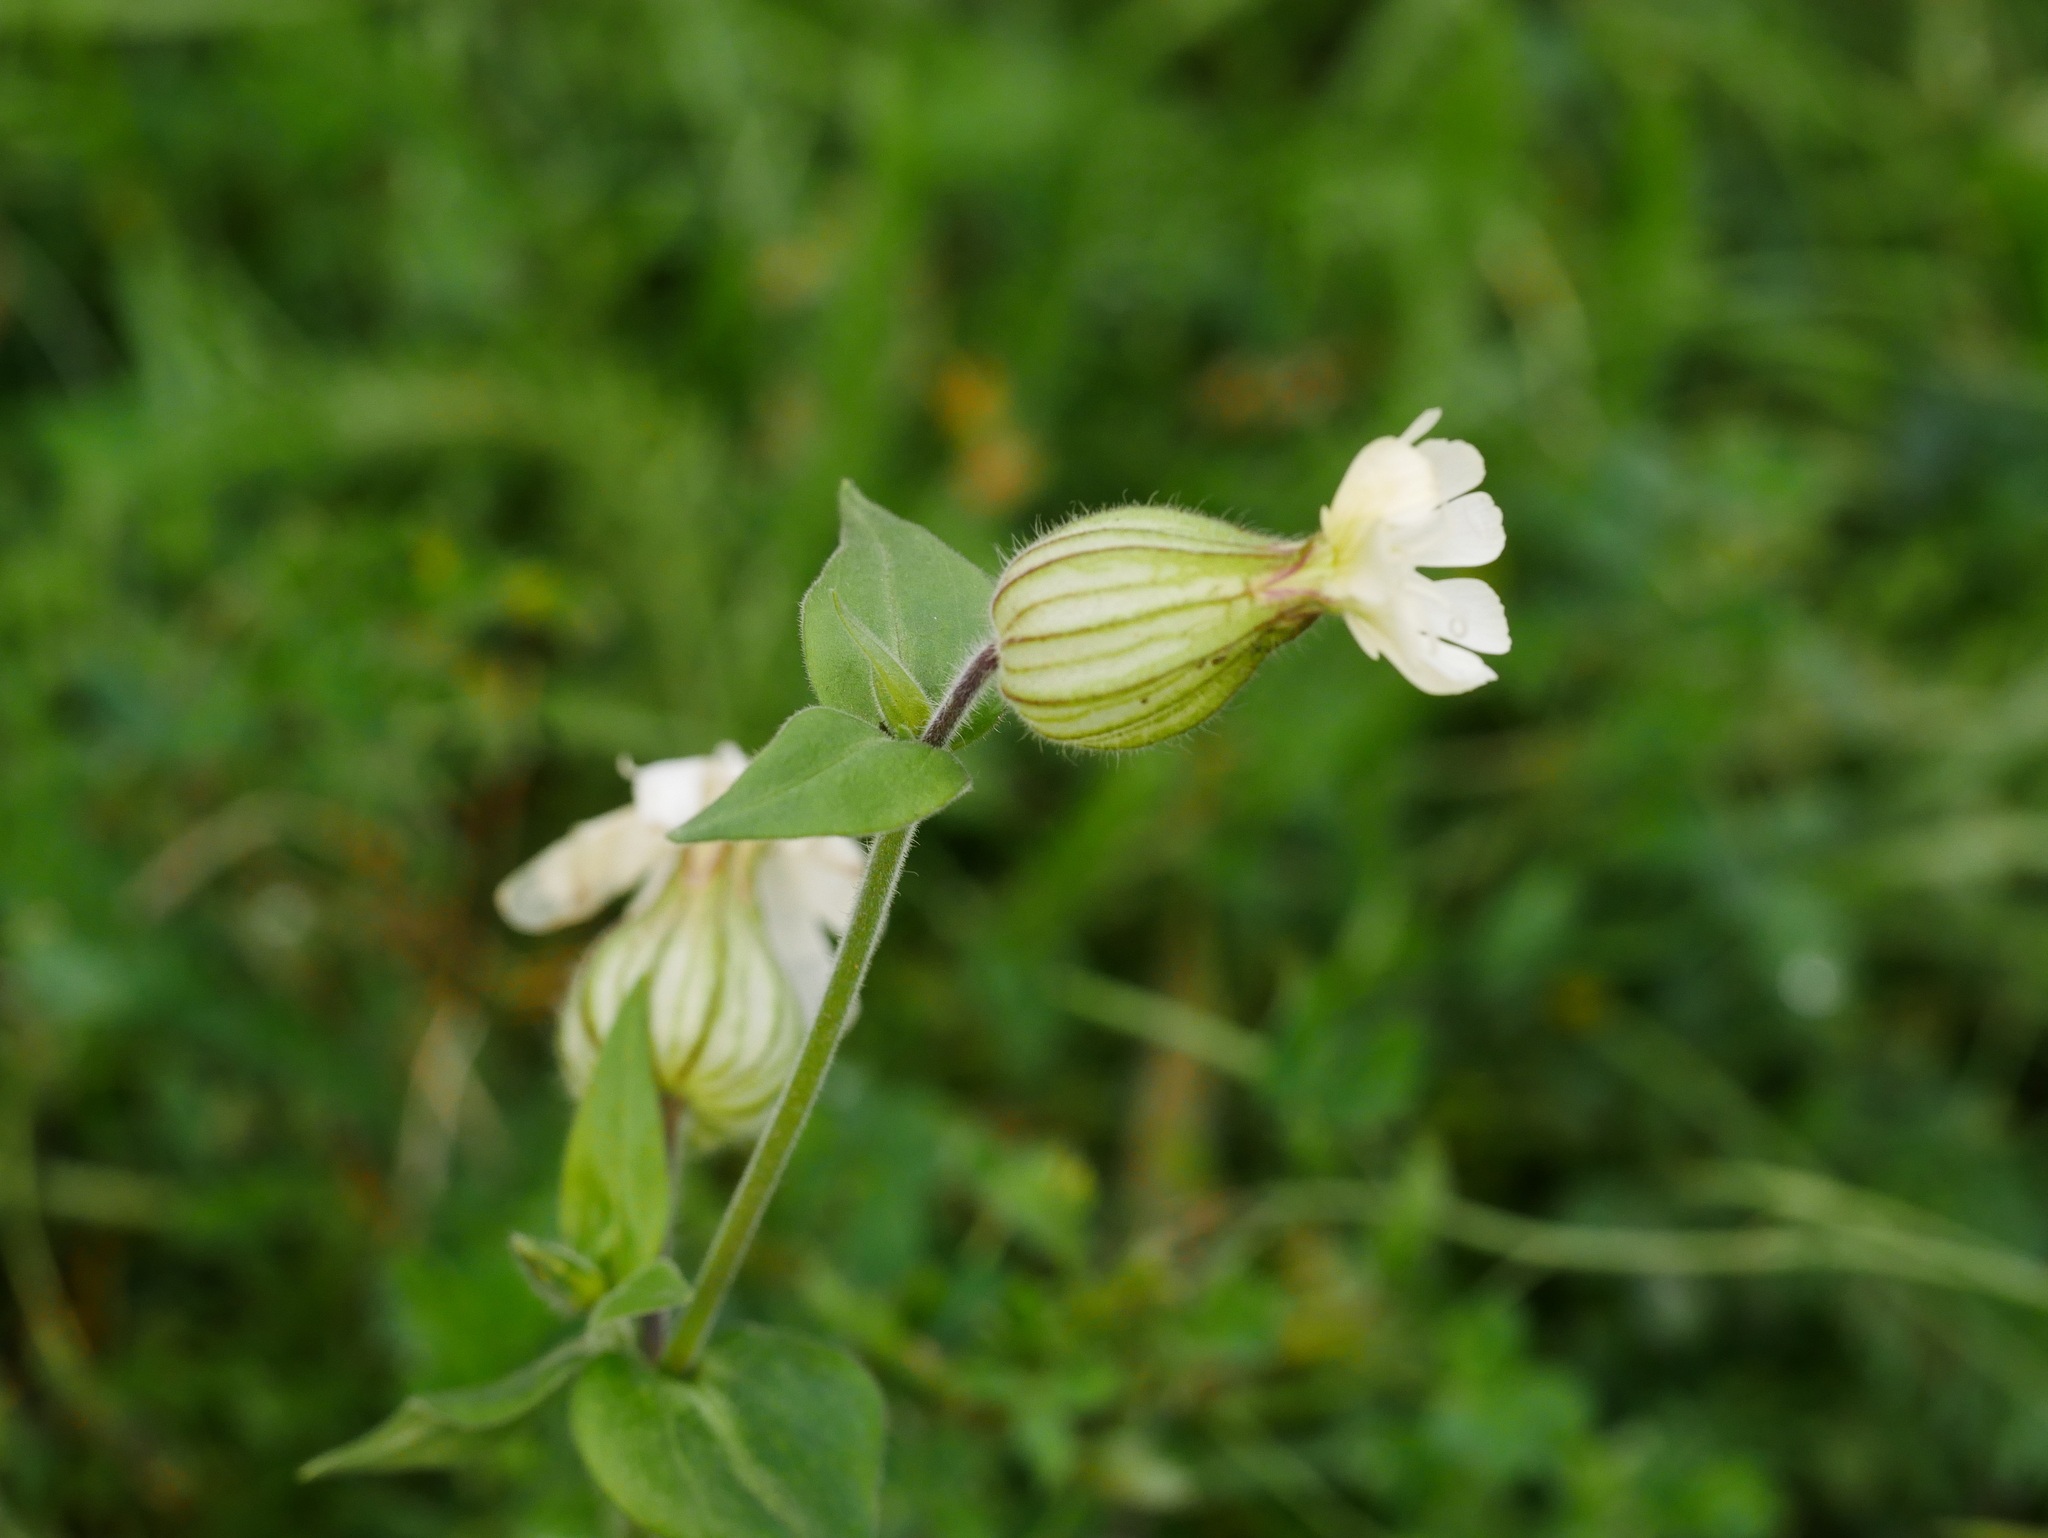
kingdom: Plantae
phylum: Tracheophyta
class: Magnoliopsida
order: Caryophyllales
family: Caryophyllaceae
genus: Silene
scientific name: Silene latifolia
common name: White campion
